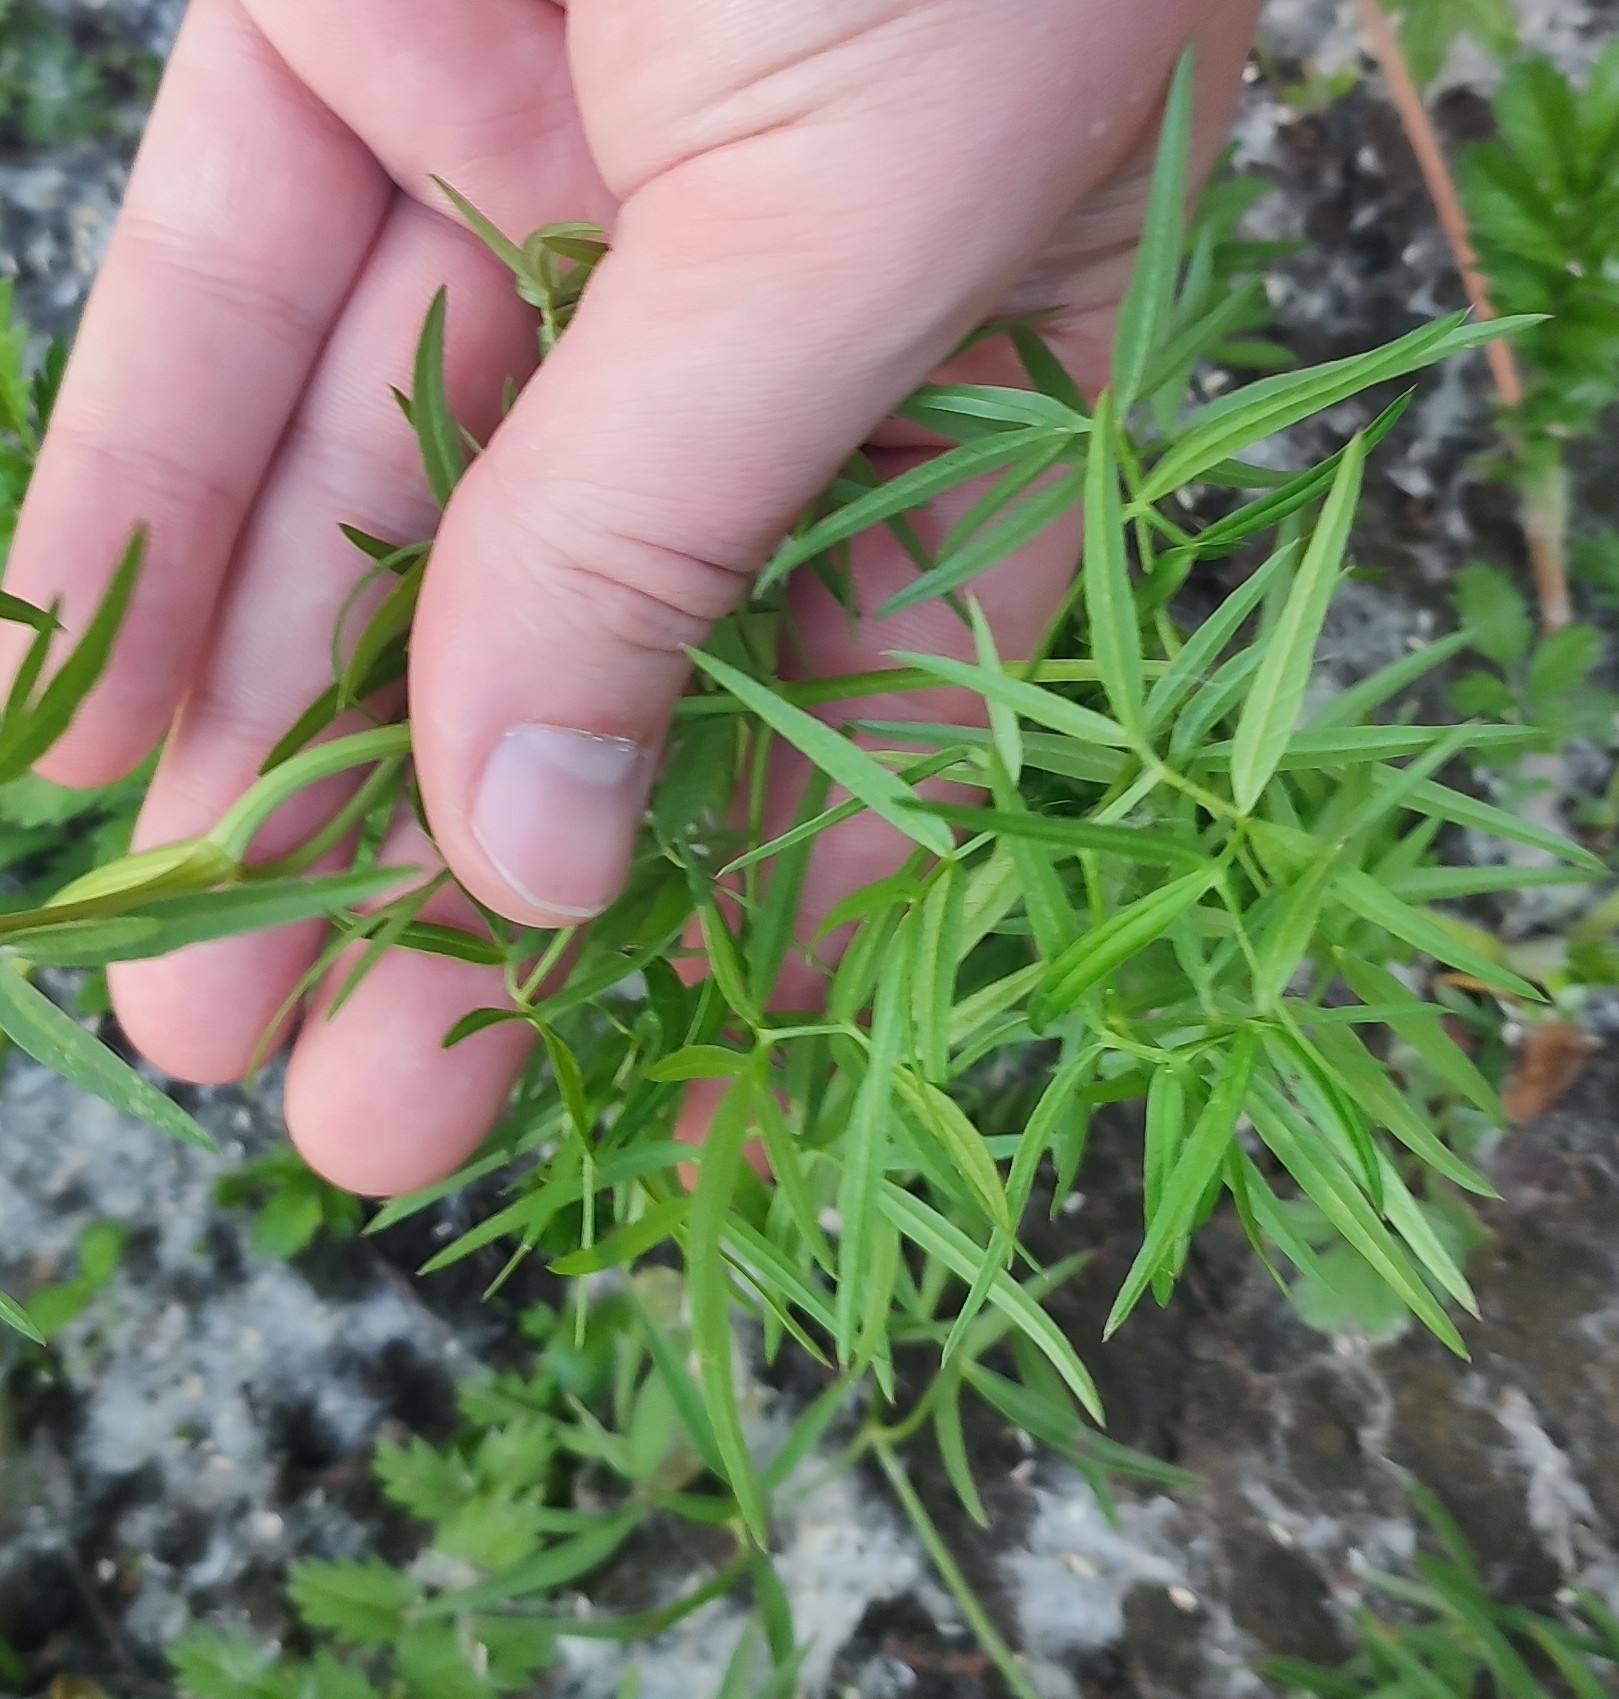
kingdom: Plantae
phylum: Tracheophyta
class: Magnoliopsida
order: Apiales
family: Apiaceae
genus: Cenolophium
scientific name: Cenolophium fischeri
